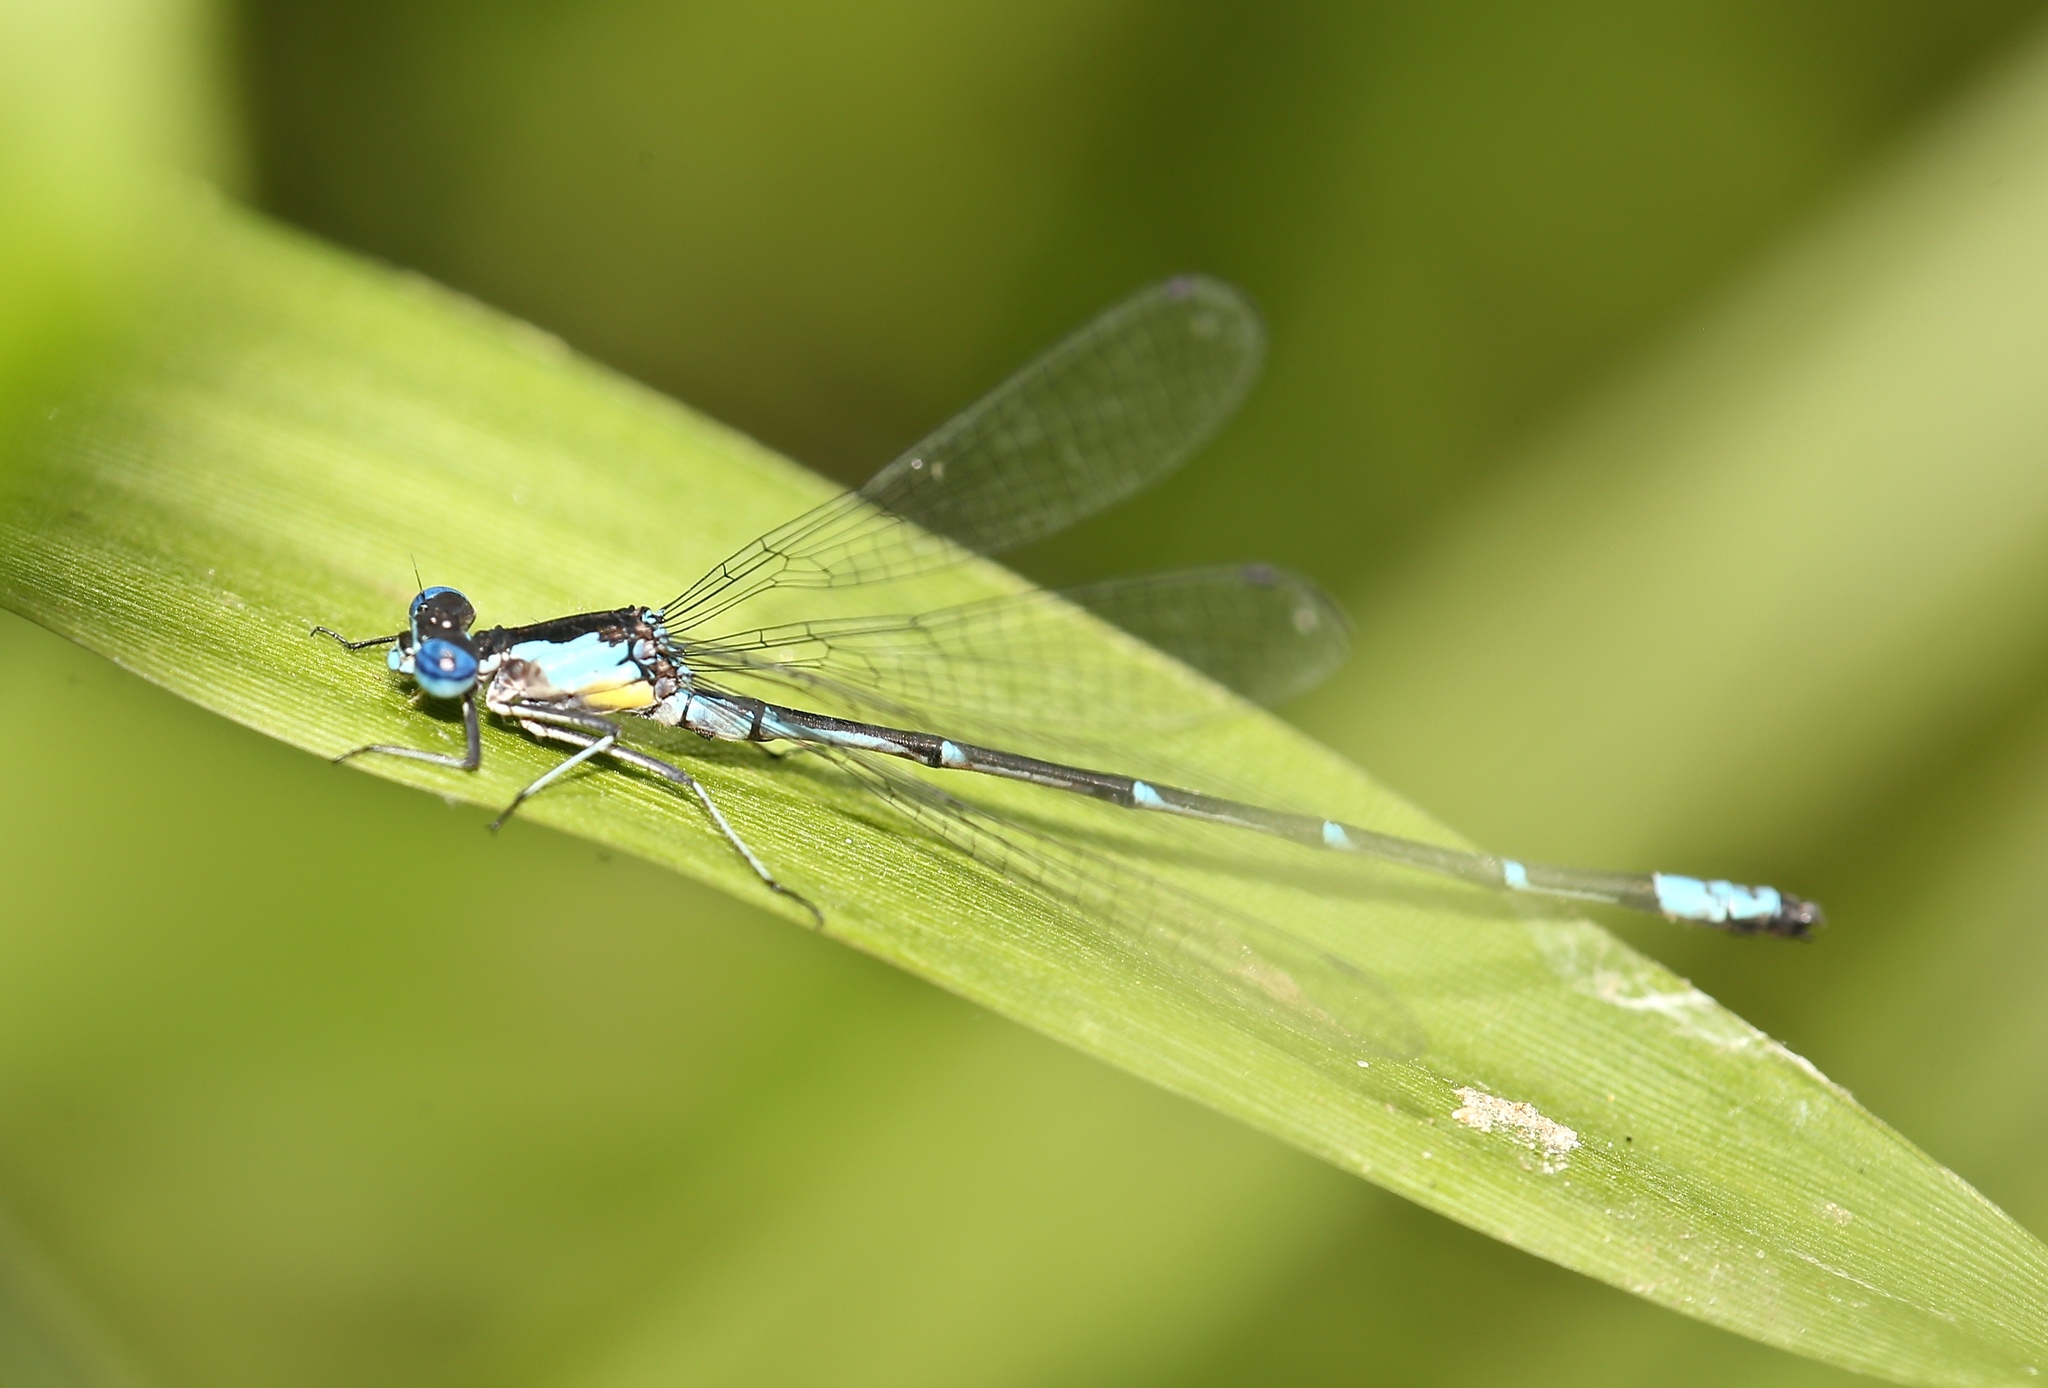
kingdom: Animalia
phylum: Arthropoda
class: Insecta
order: Odonata
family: Coenagrionidae
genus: Chromagrion
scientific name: Chromagrion conditum
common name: Aurora damsel
